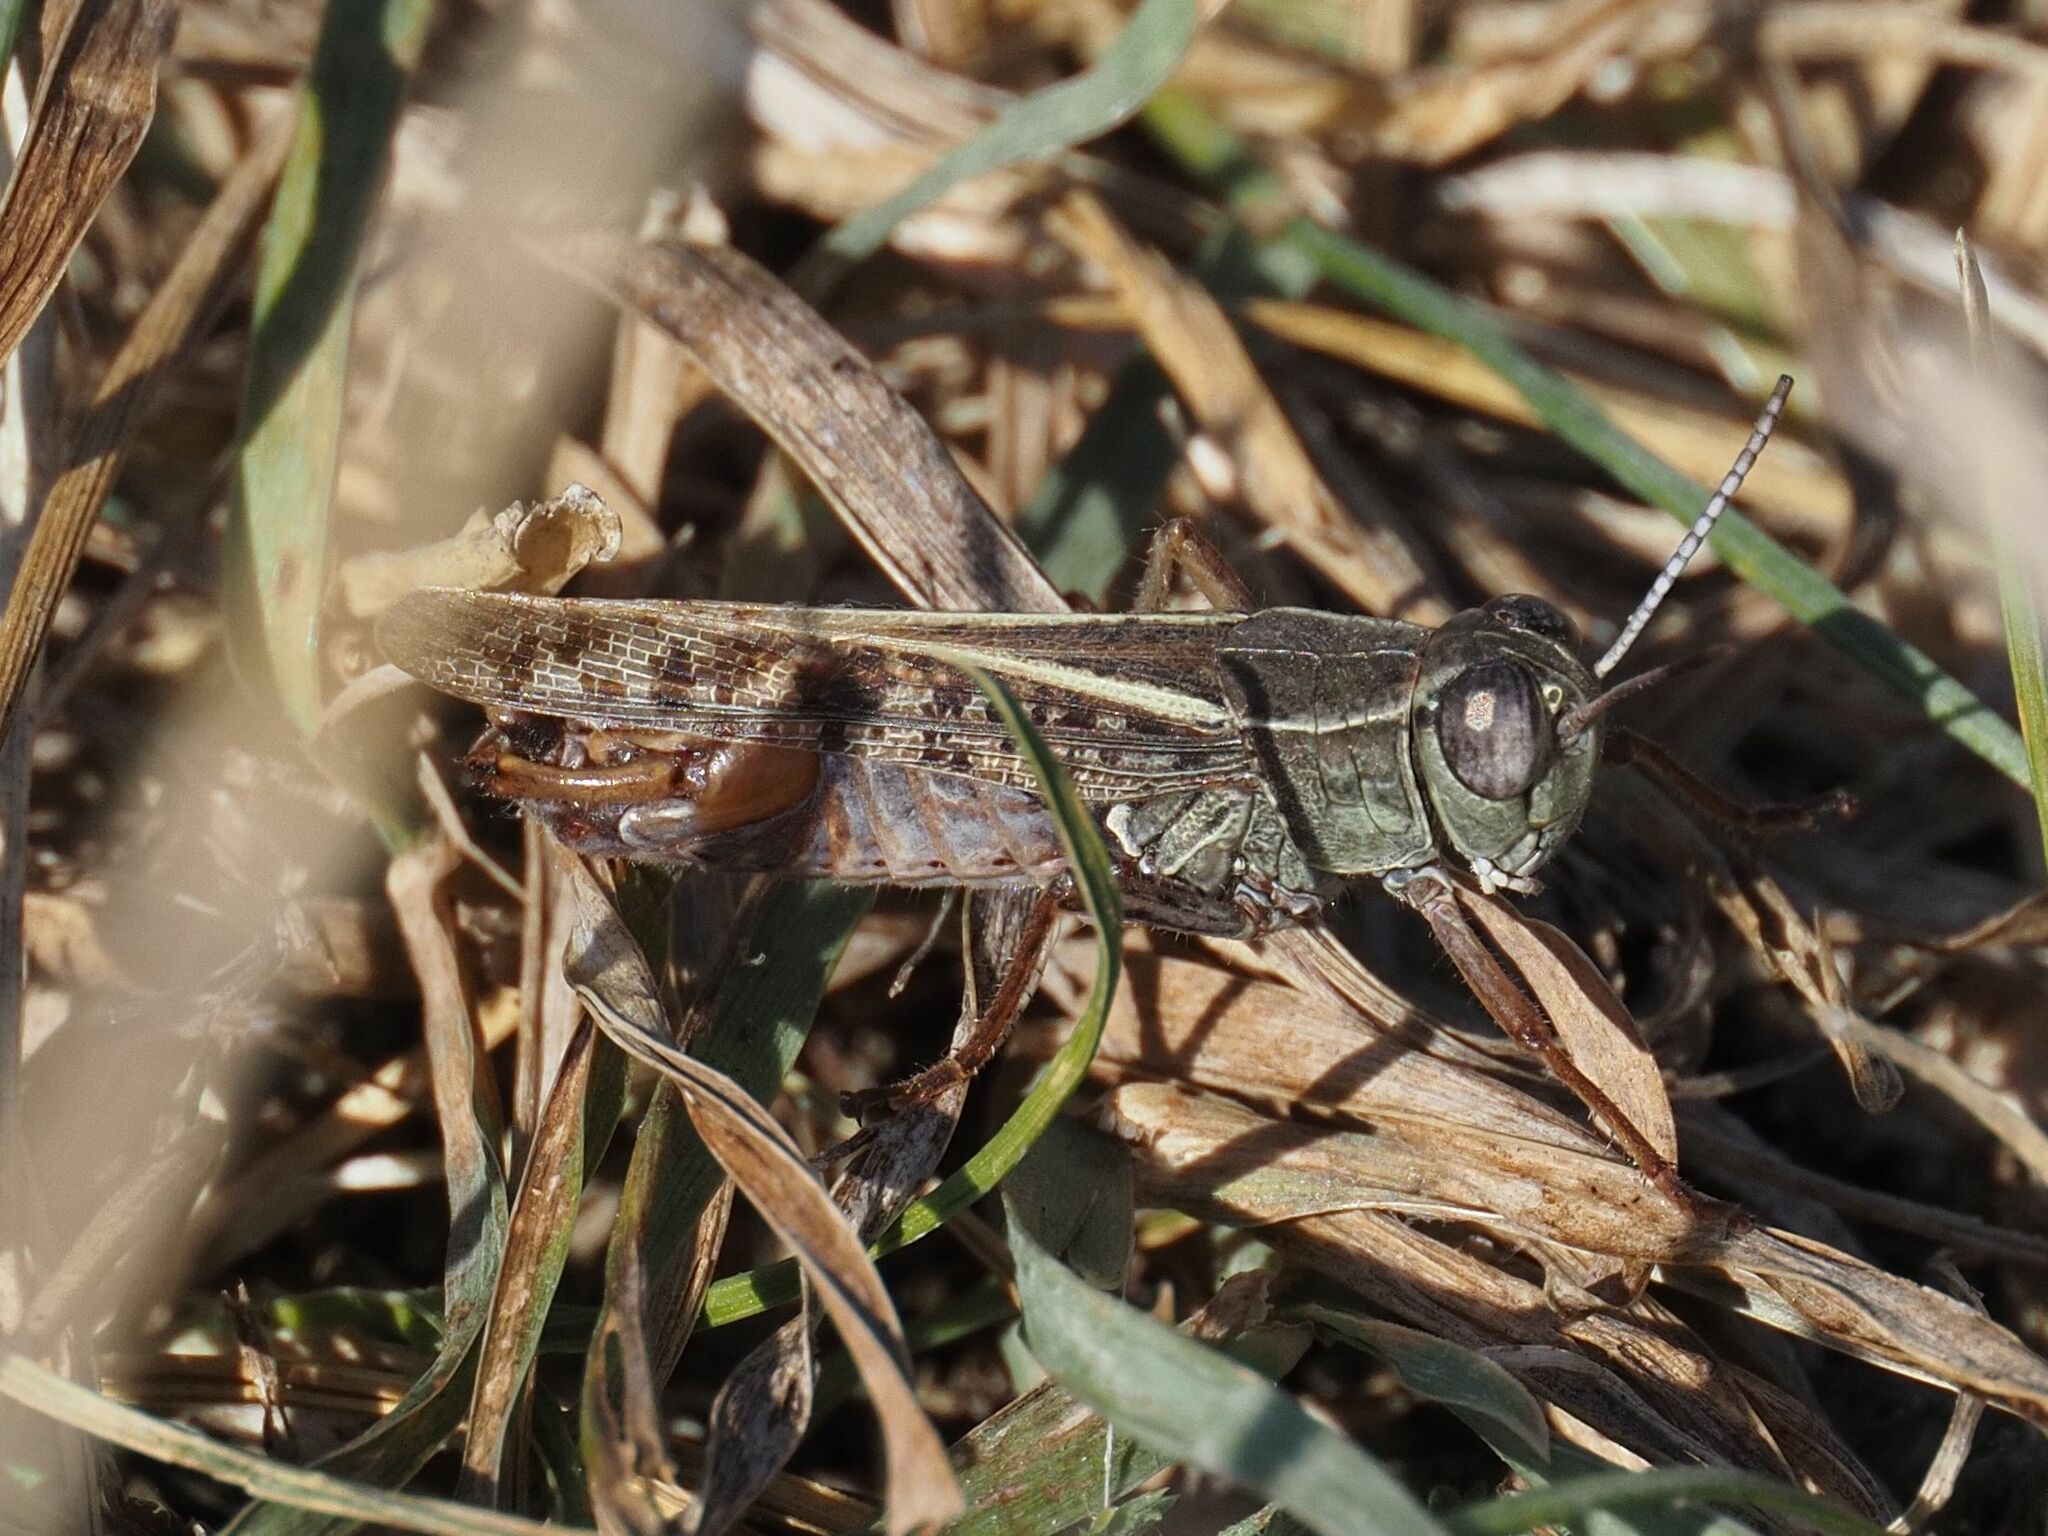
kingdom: Animalia
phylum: Arthropoda
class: Insecta
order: Orthoptera
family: Acrididae
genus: Calliptamus
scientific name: Calliptamus italicus
